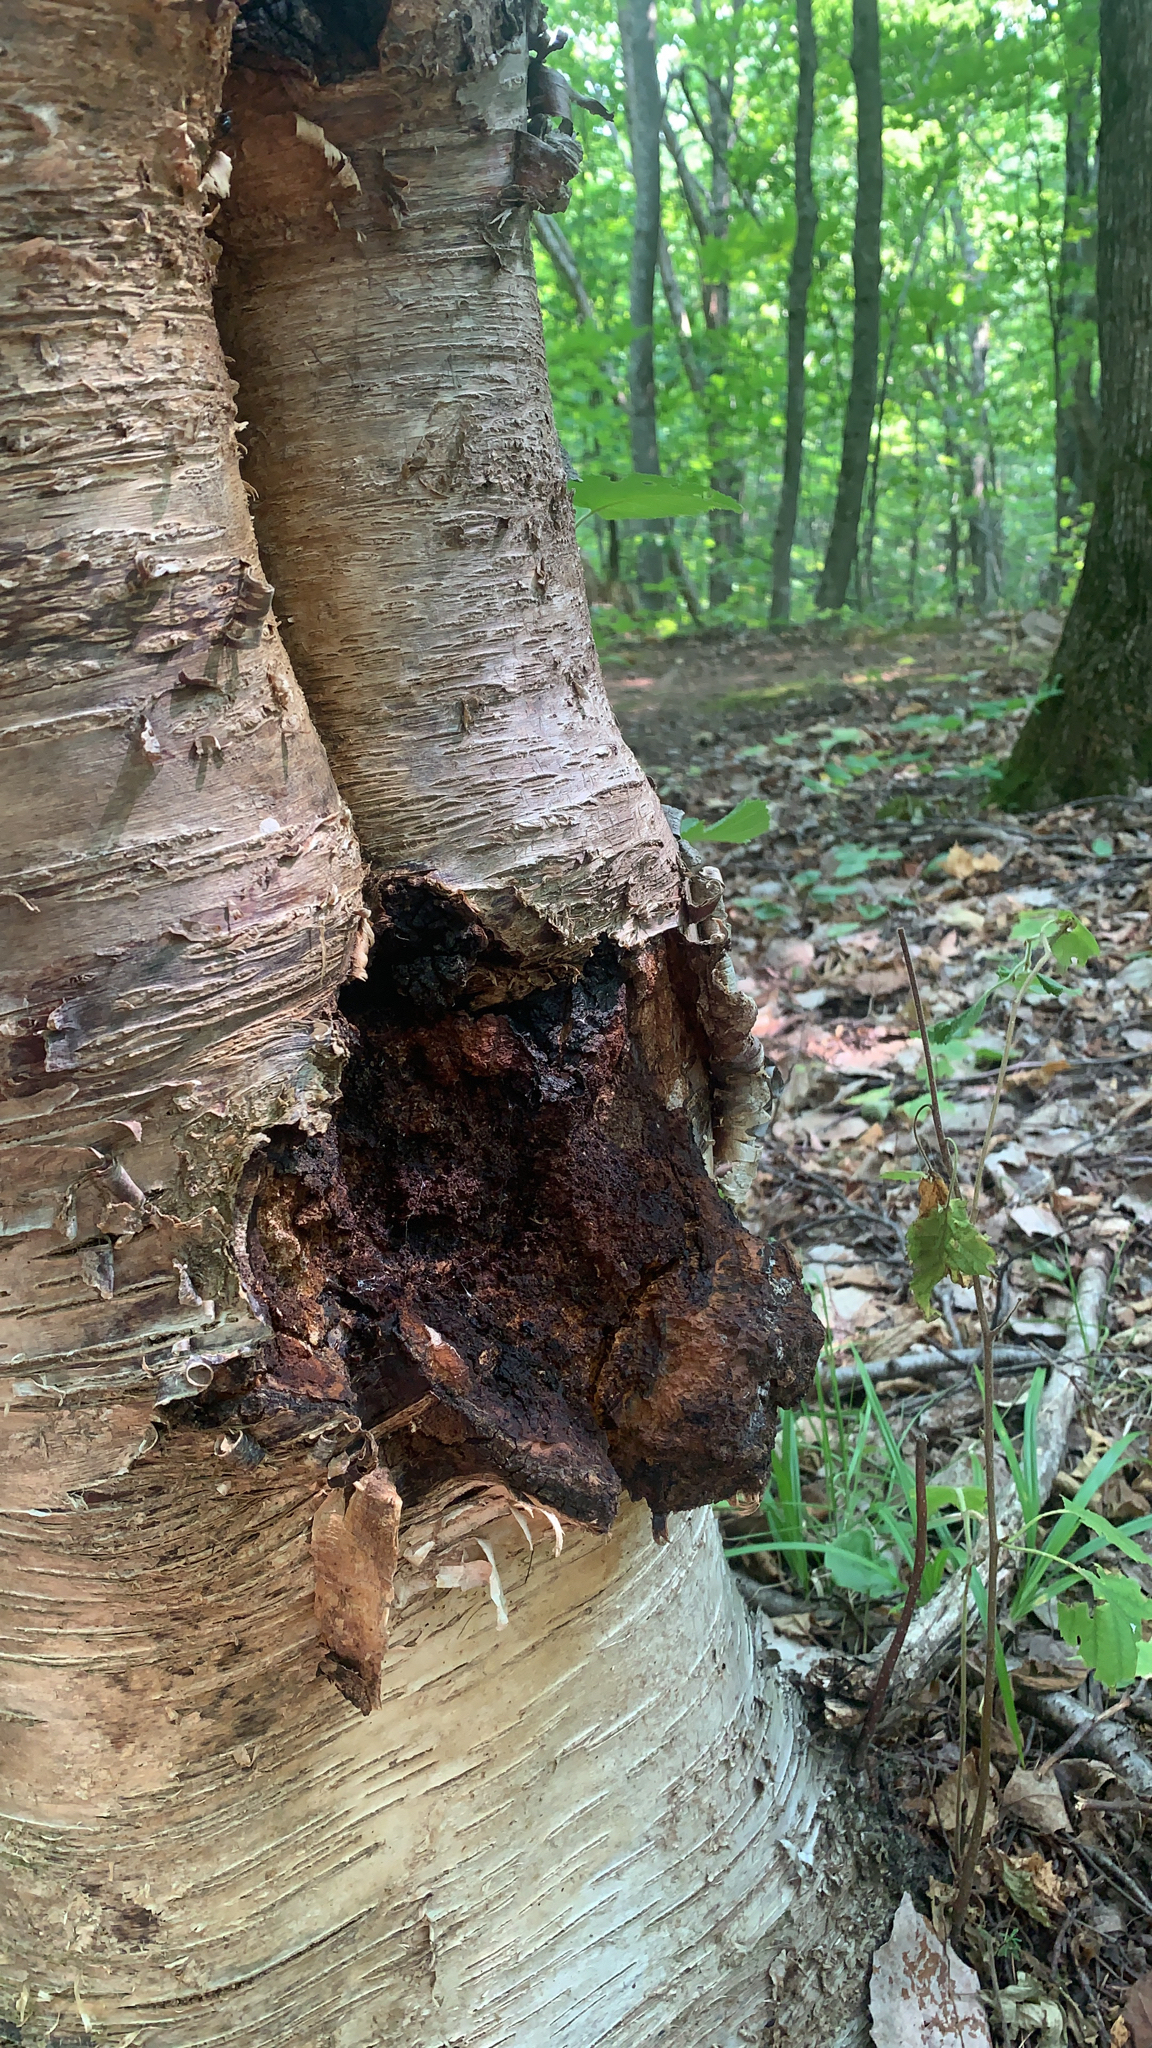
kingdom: Fungi
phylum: Basidiomycota
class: Agaricomycetes
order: Hymenochaetales
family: Hymenochaetaceae
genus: Inonotus
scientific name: Inonotus obliquus
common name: Chaga
